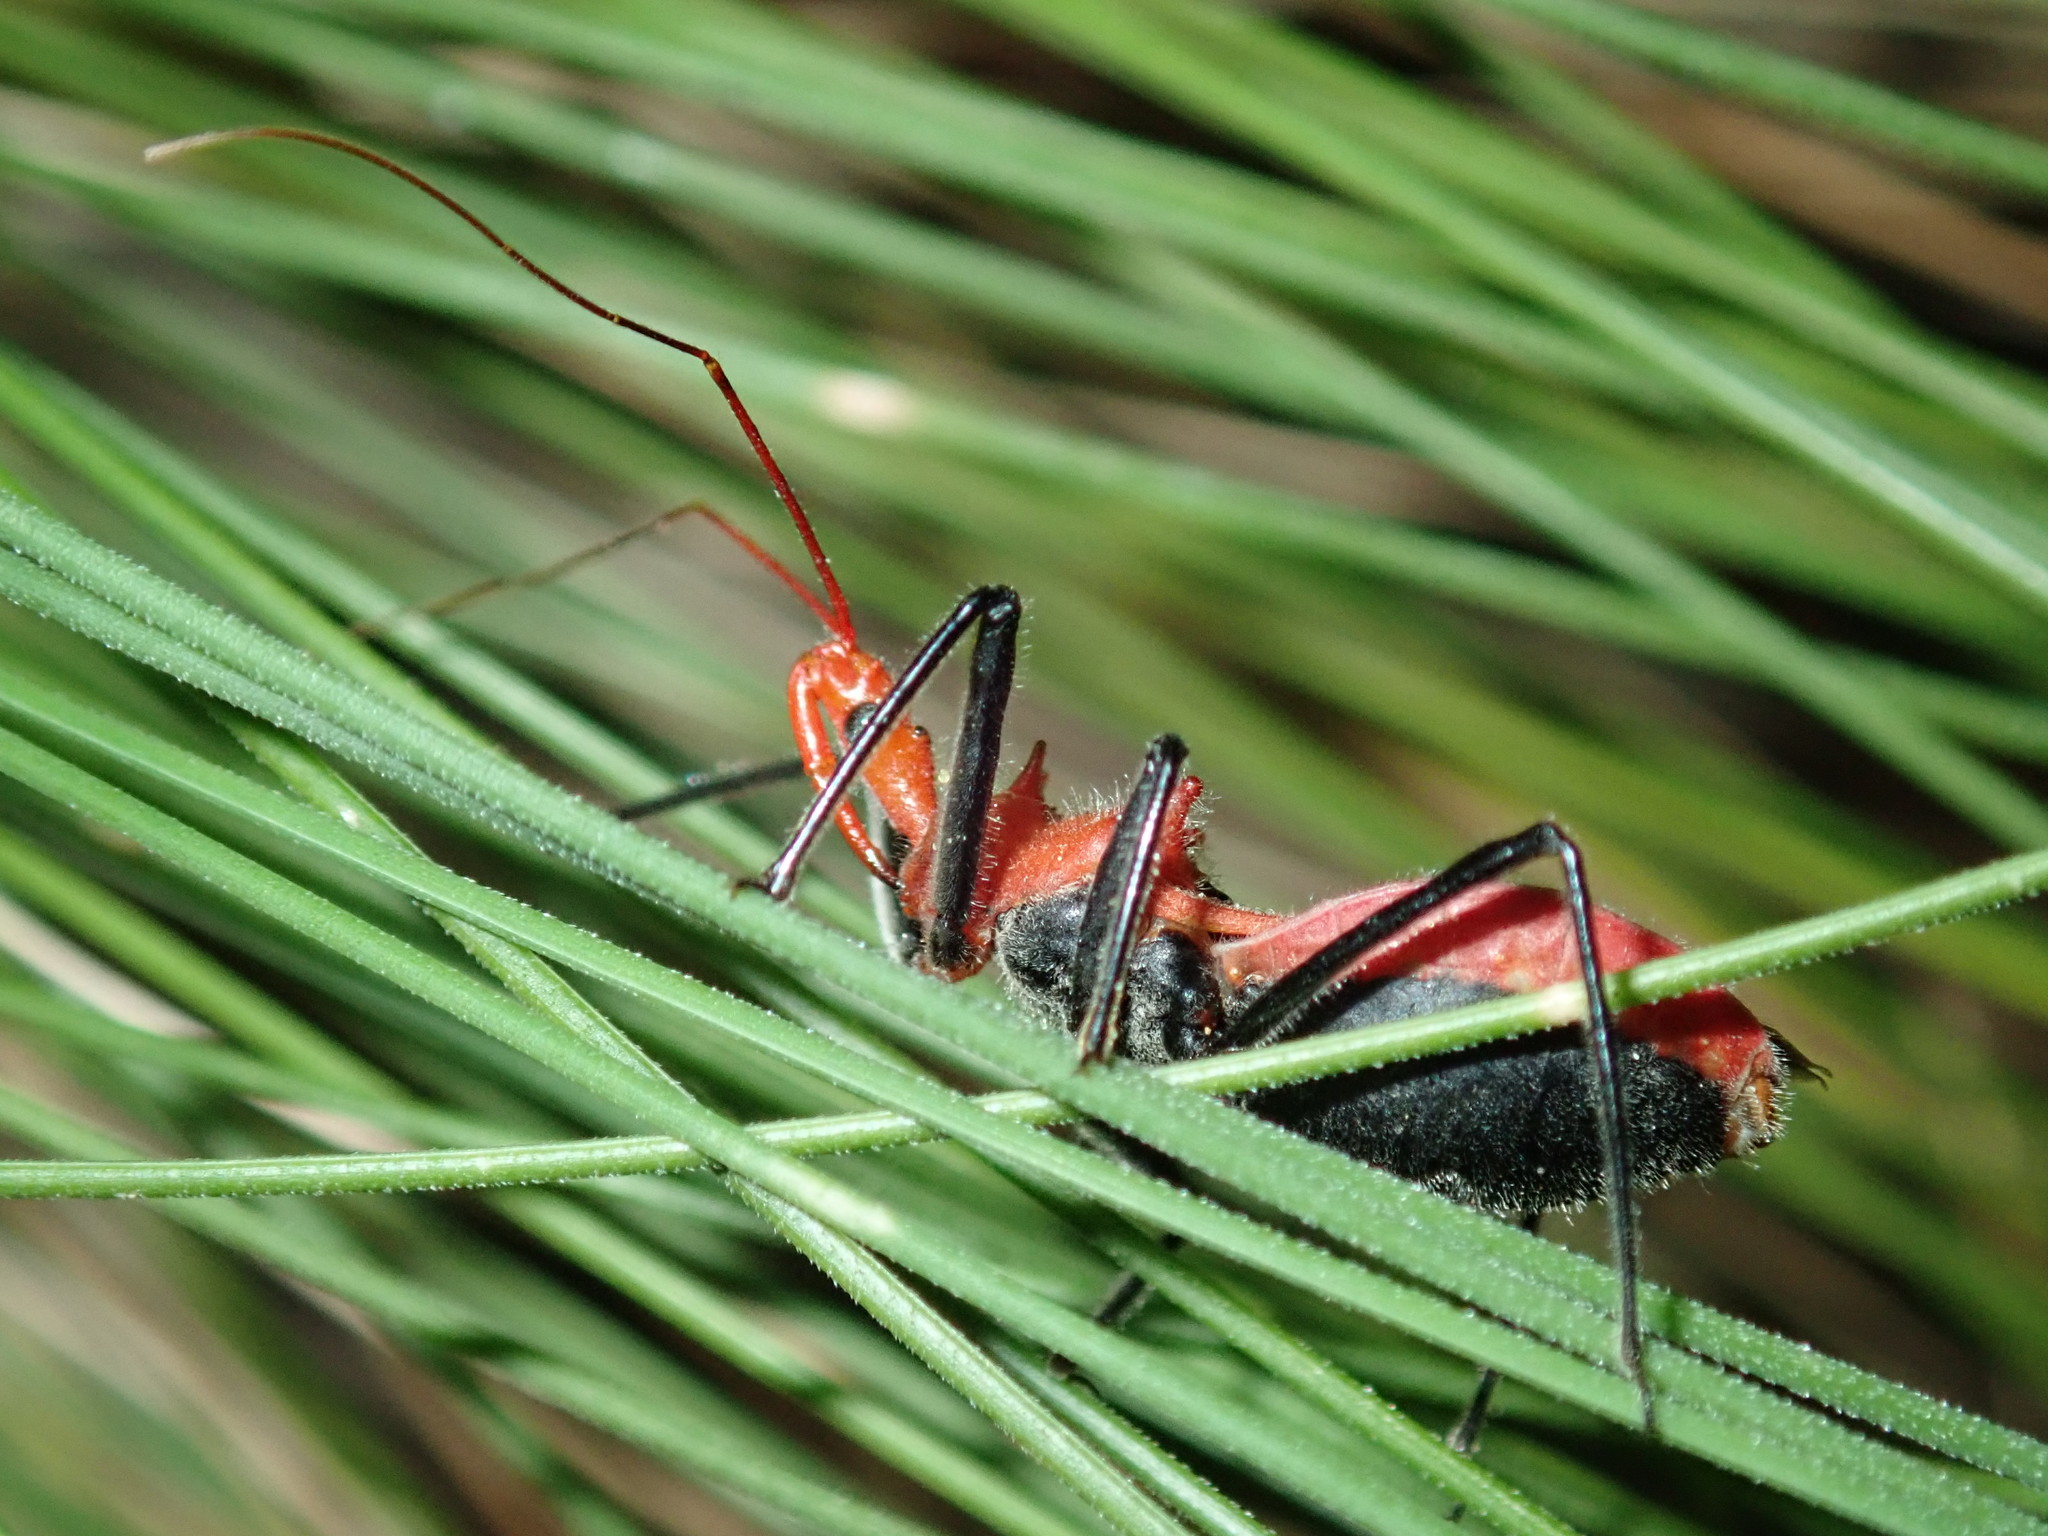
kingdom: Animalia
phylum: Arthropoda
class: Insecta
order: Hemiptera
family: Reduviidae
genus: Gminatus
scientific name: Gminatus wallengreni
